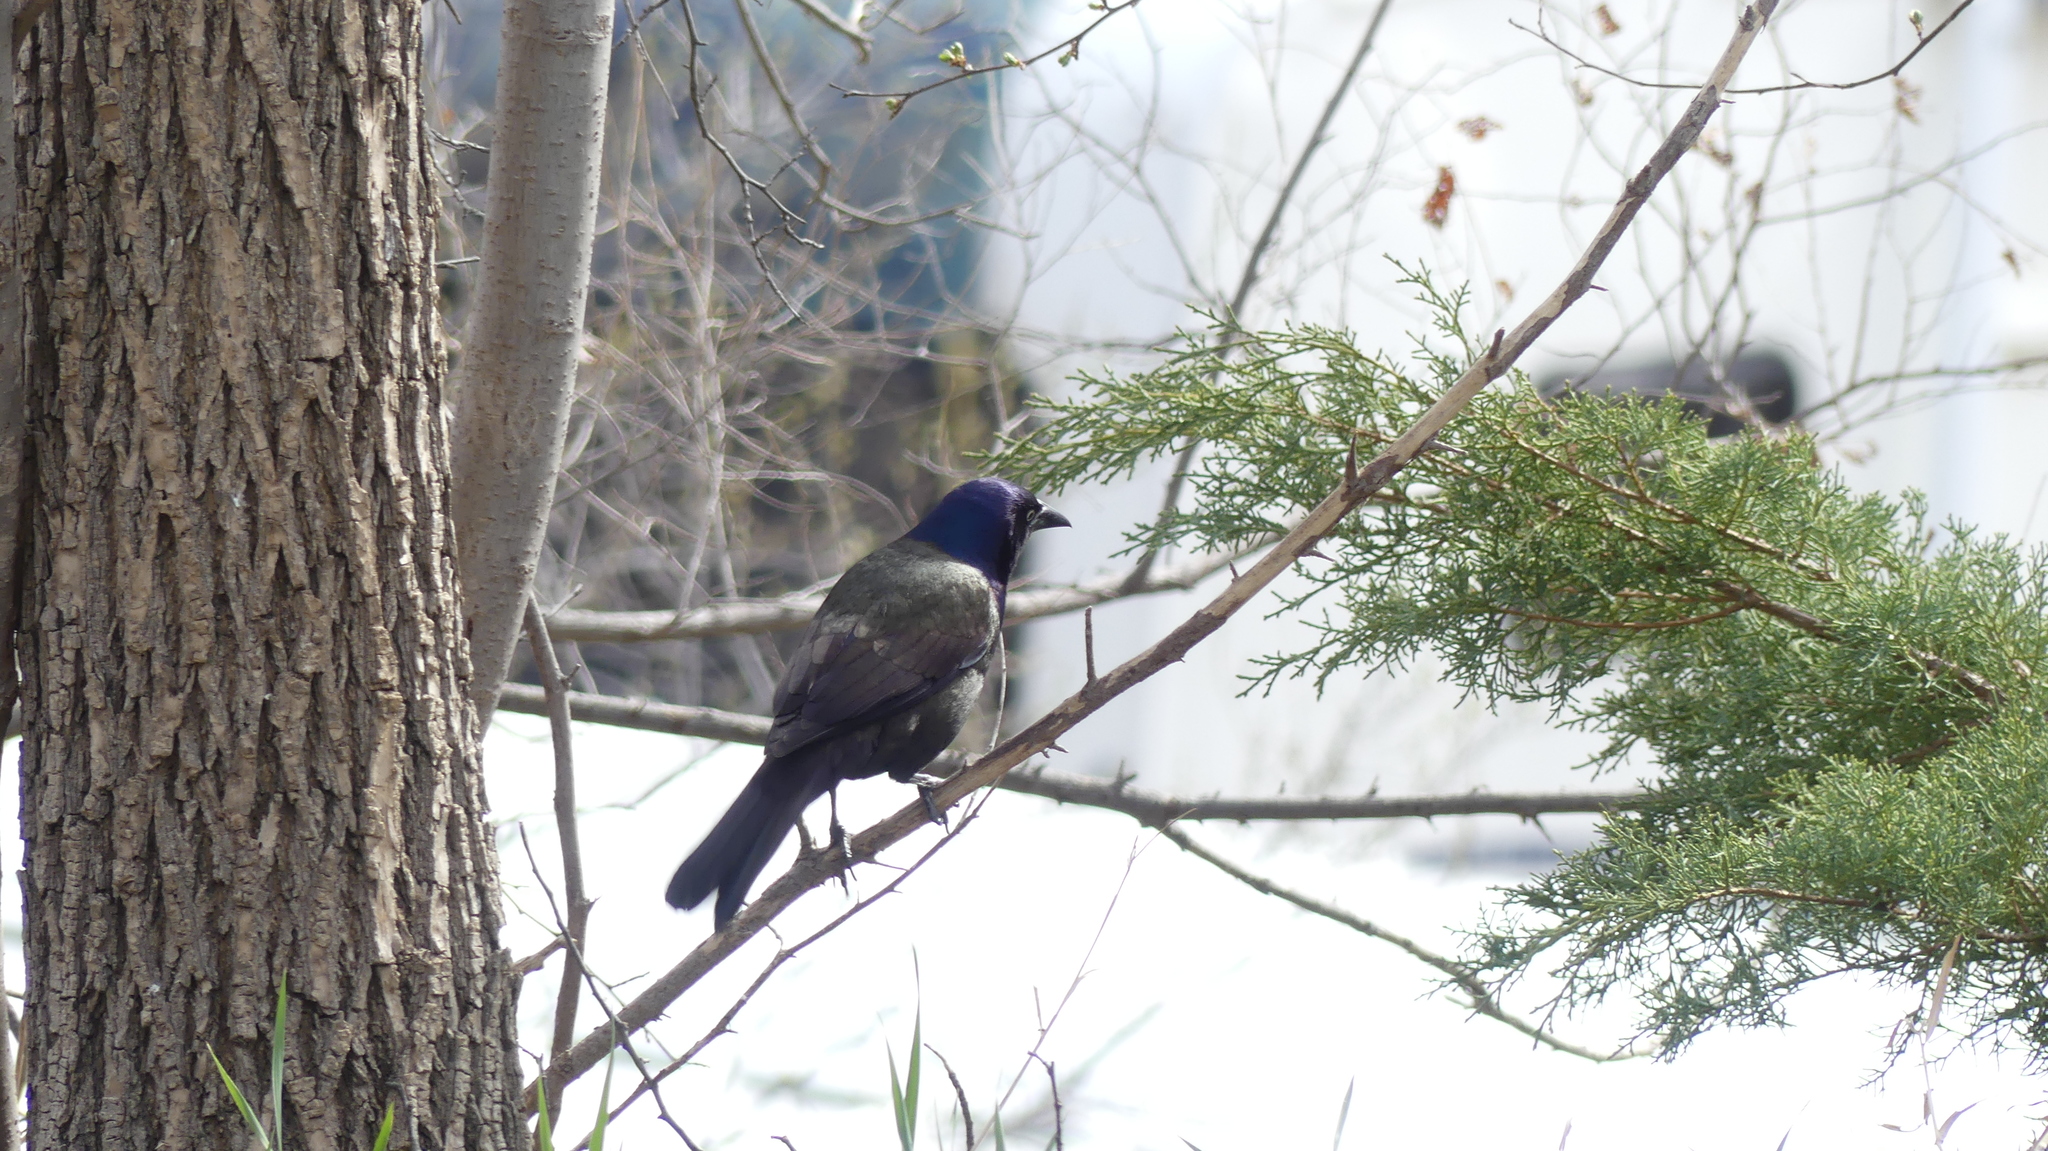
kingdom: Animalia
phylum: Chordata
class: Aves
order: Passeriformes
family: Icteridae
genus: Quiscalus
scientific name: Quiscalus quiscula
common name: Common grackle
